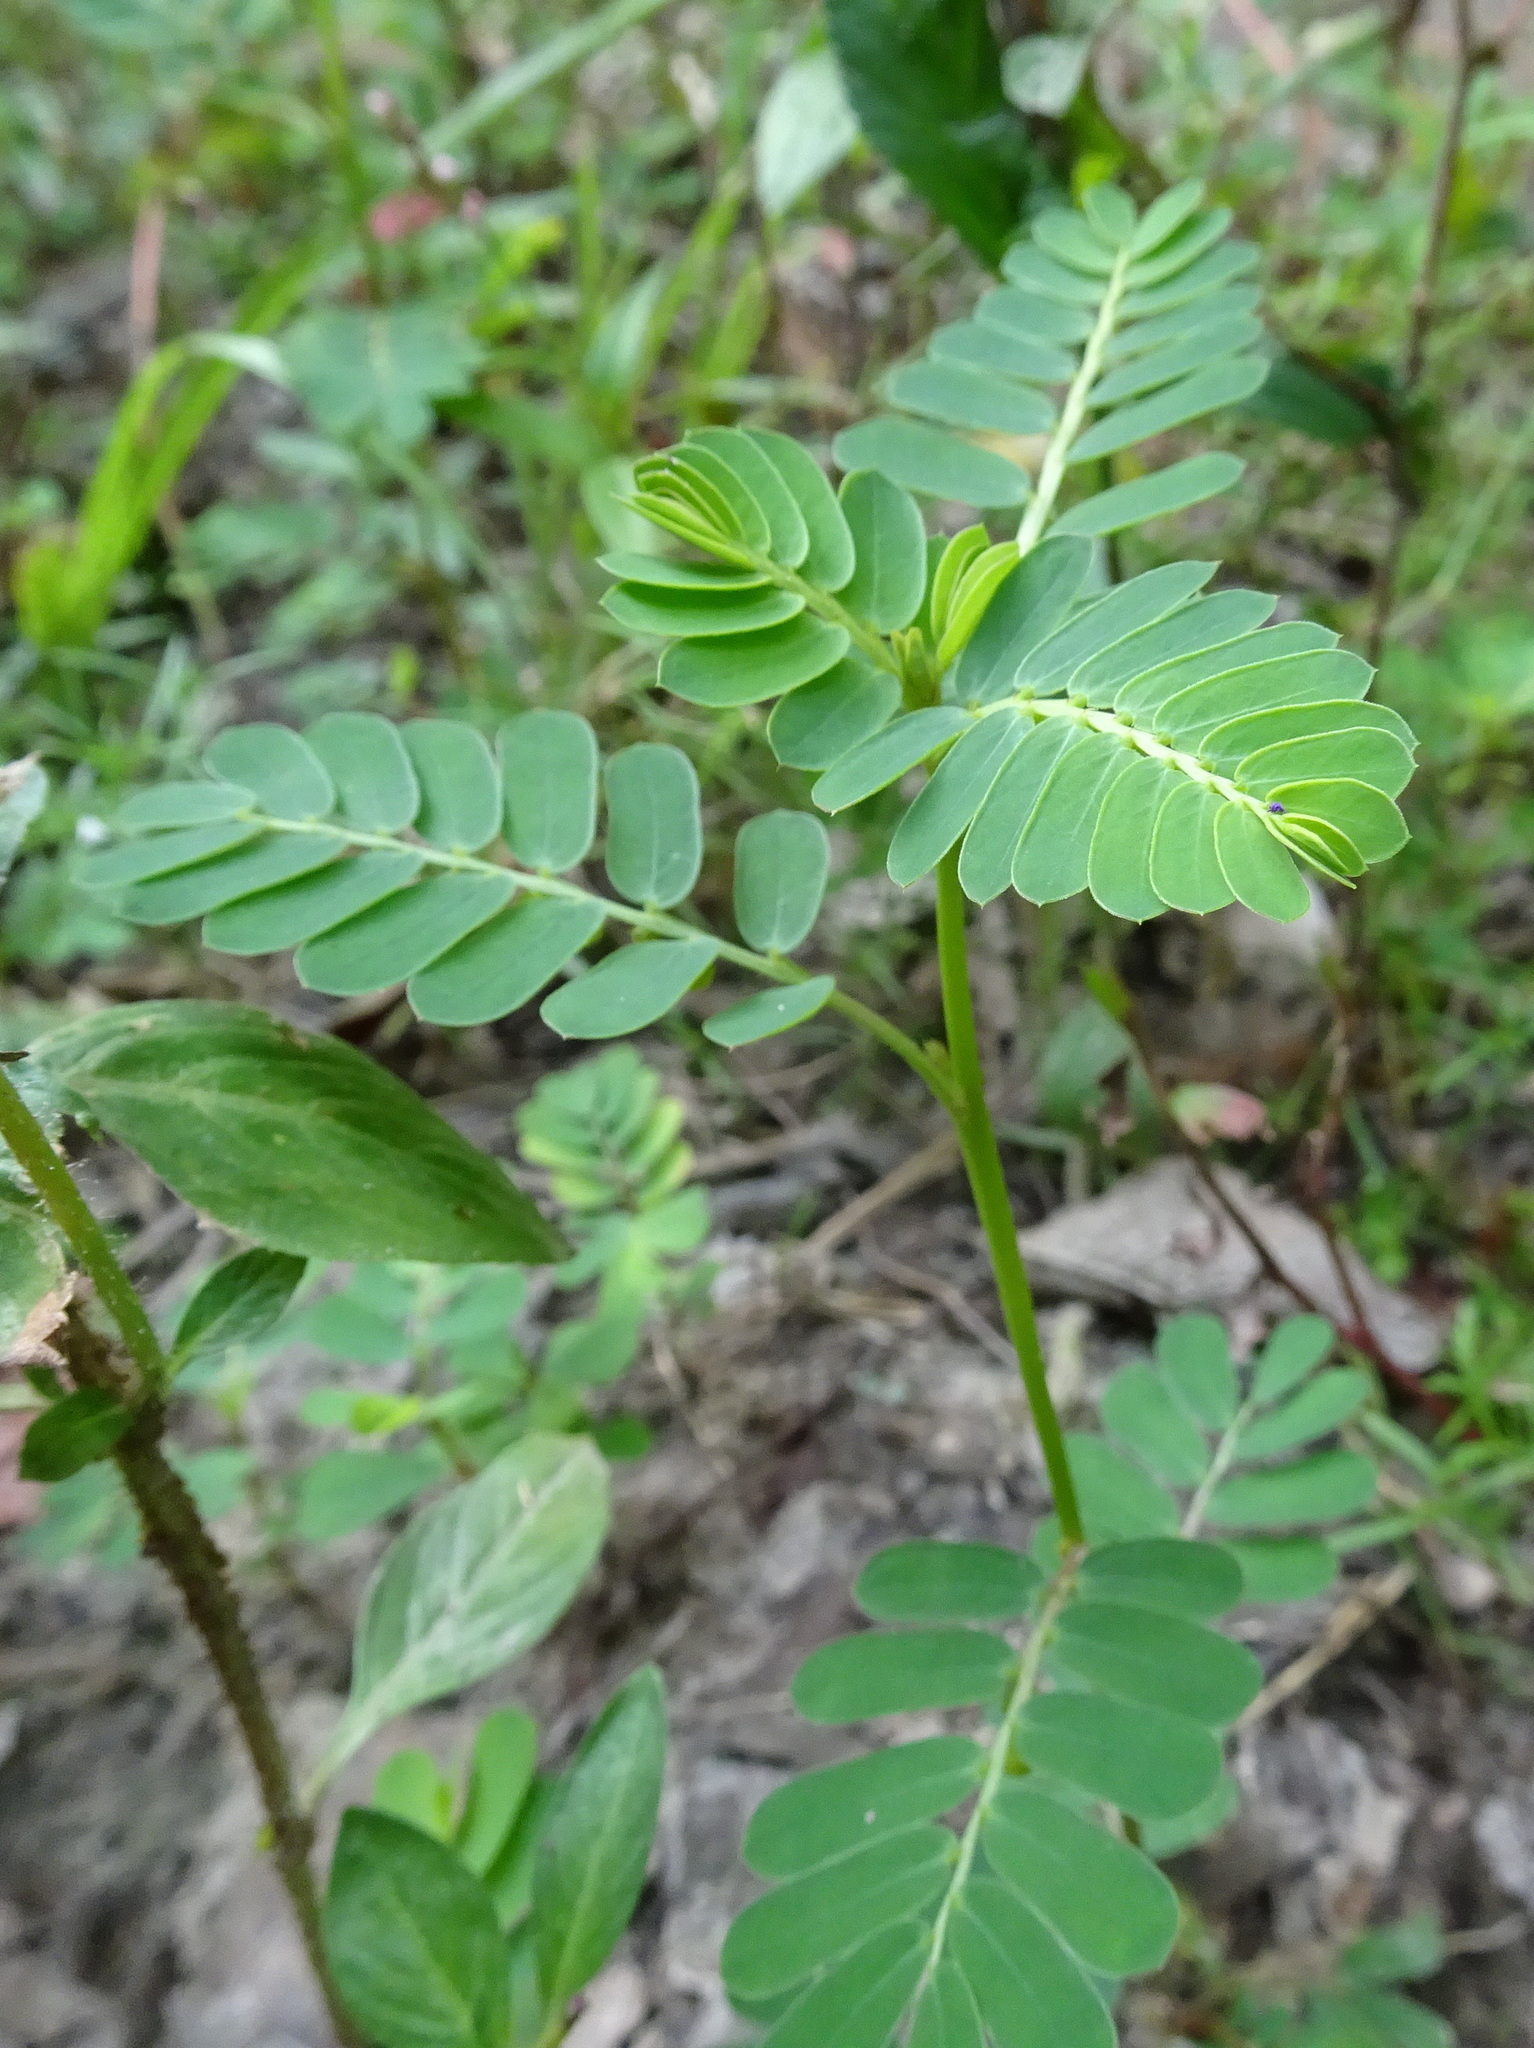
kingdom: Plantae
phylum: Tracheophyta
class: Magnoliopsida
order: Malpighiales
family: Phyllanthaceae
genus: Phyllanthus
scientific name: Phyllanthus urinaria
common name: Chamber bitter
